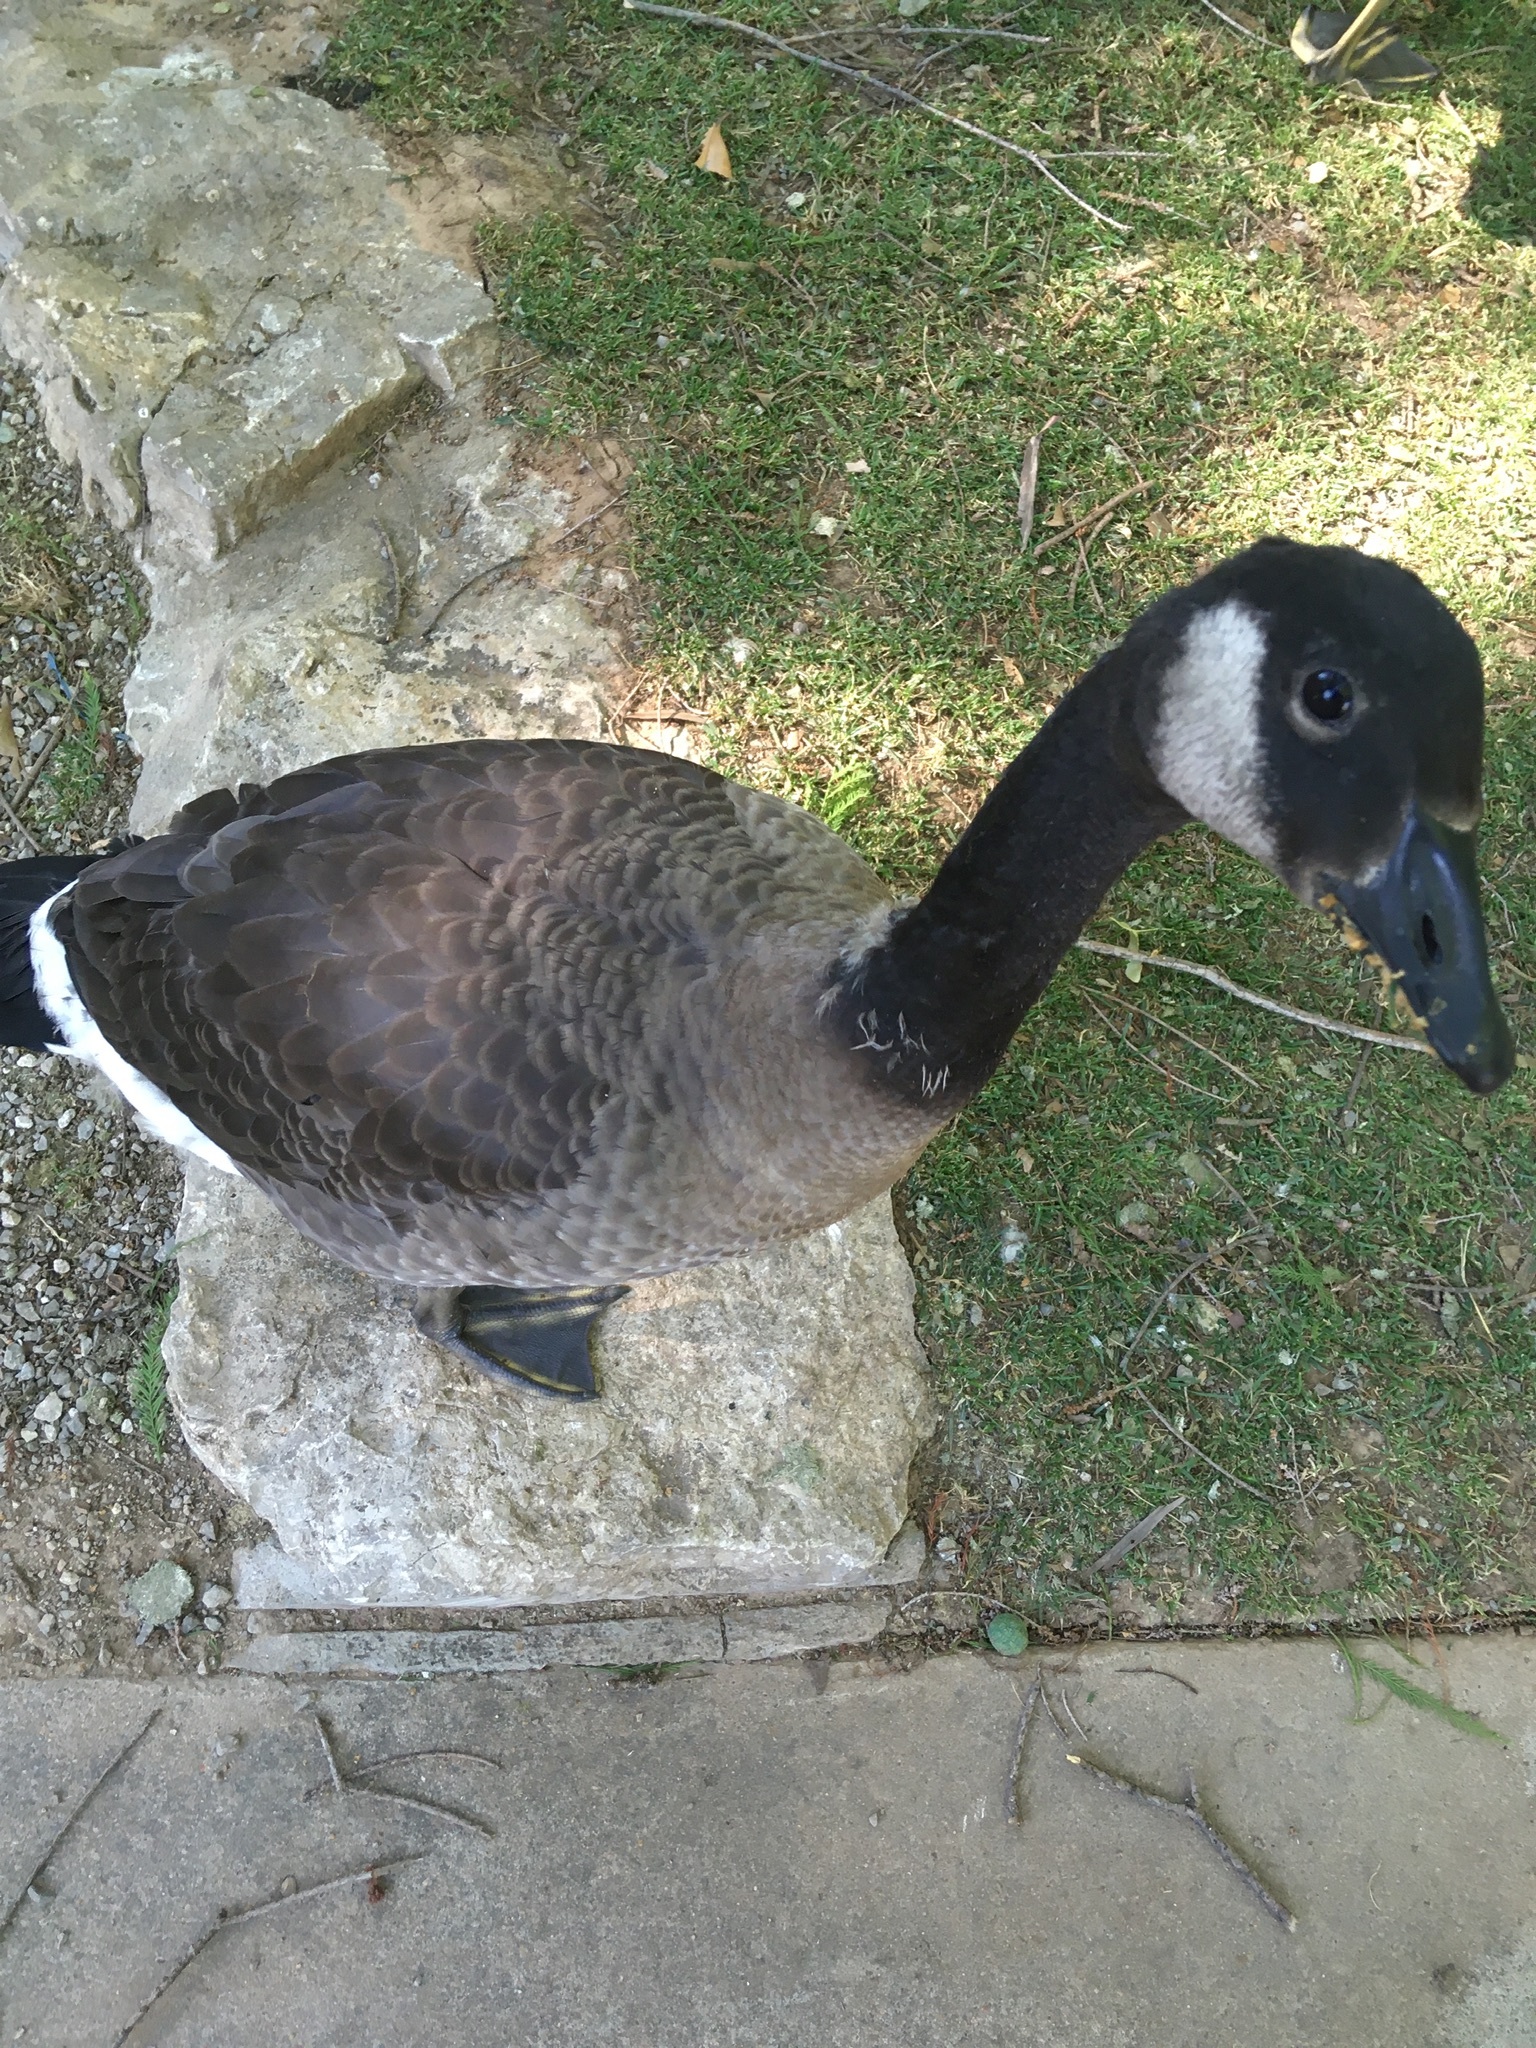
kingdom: Animalia
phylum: Chordata
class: Aves
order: Anseriformes
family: Anatidae
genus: Branta
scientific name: Branta canadensis
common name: Canada goose
